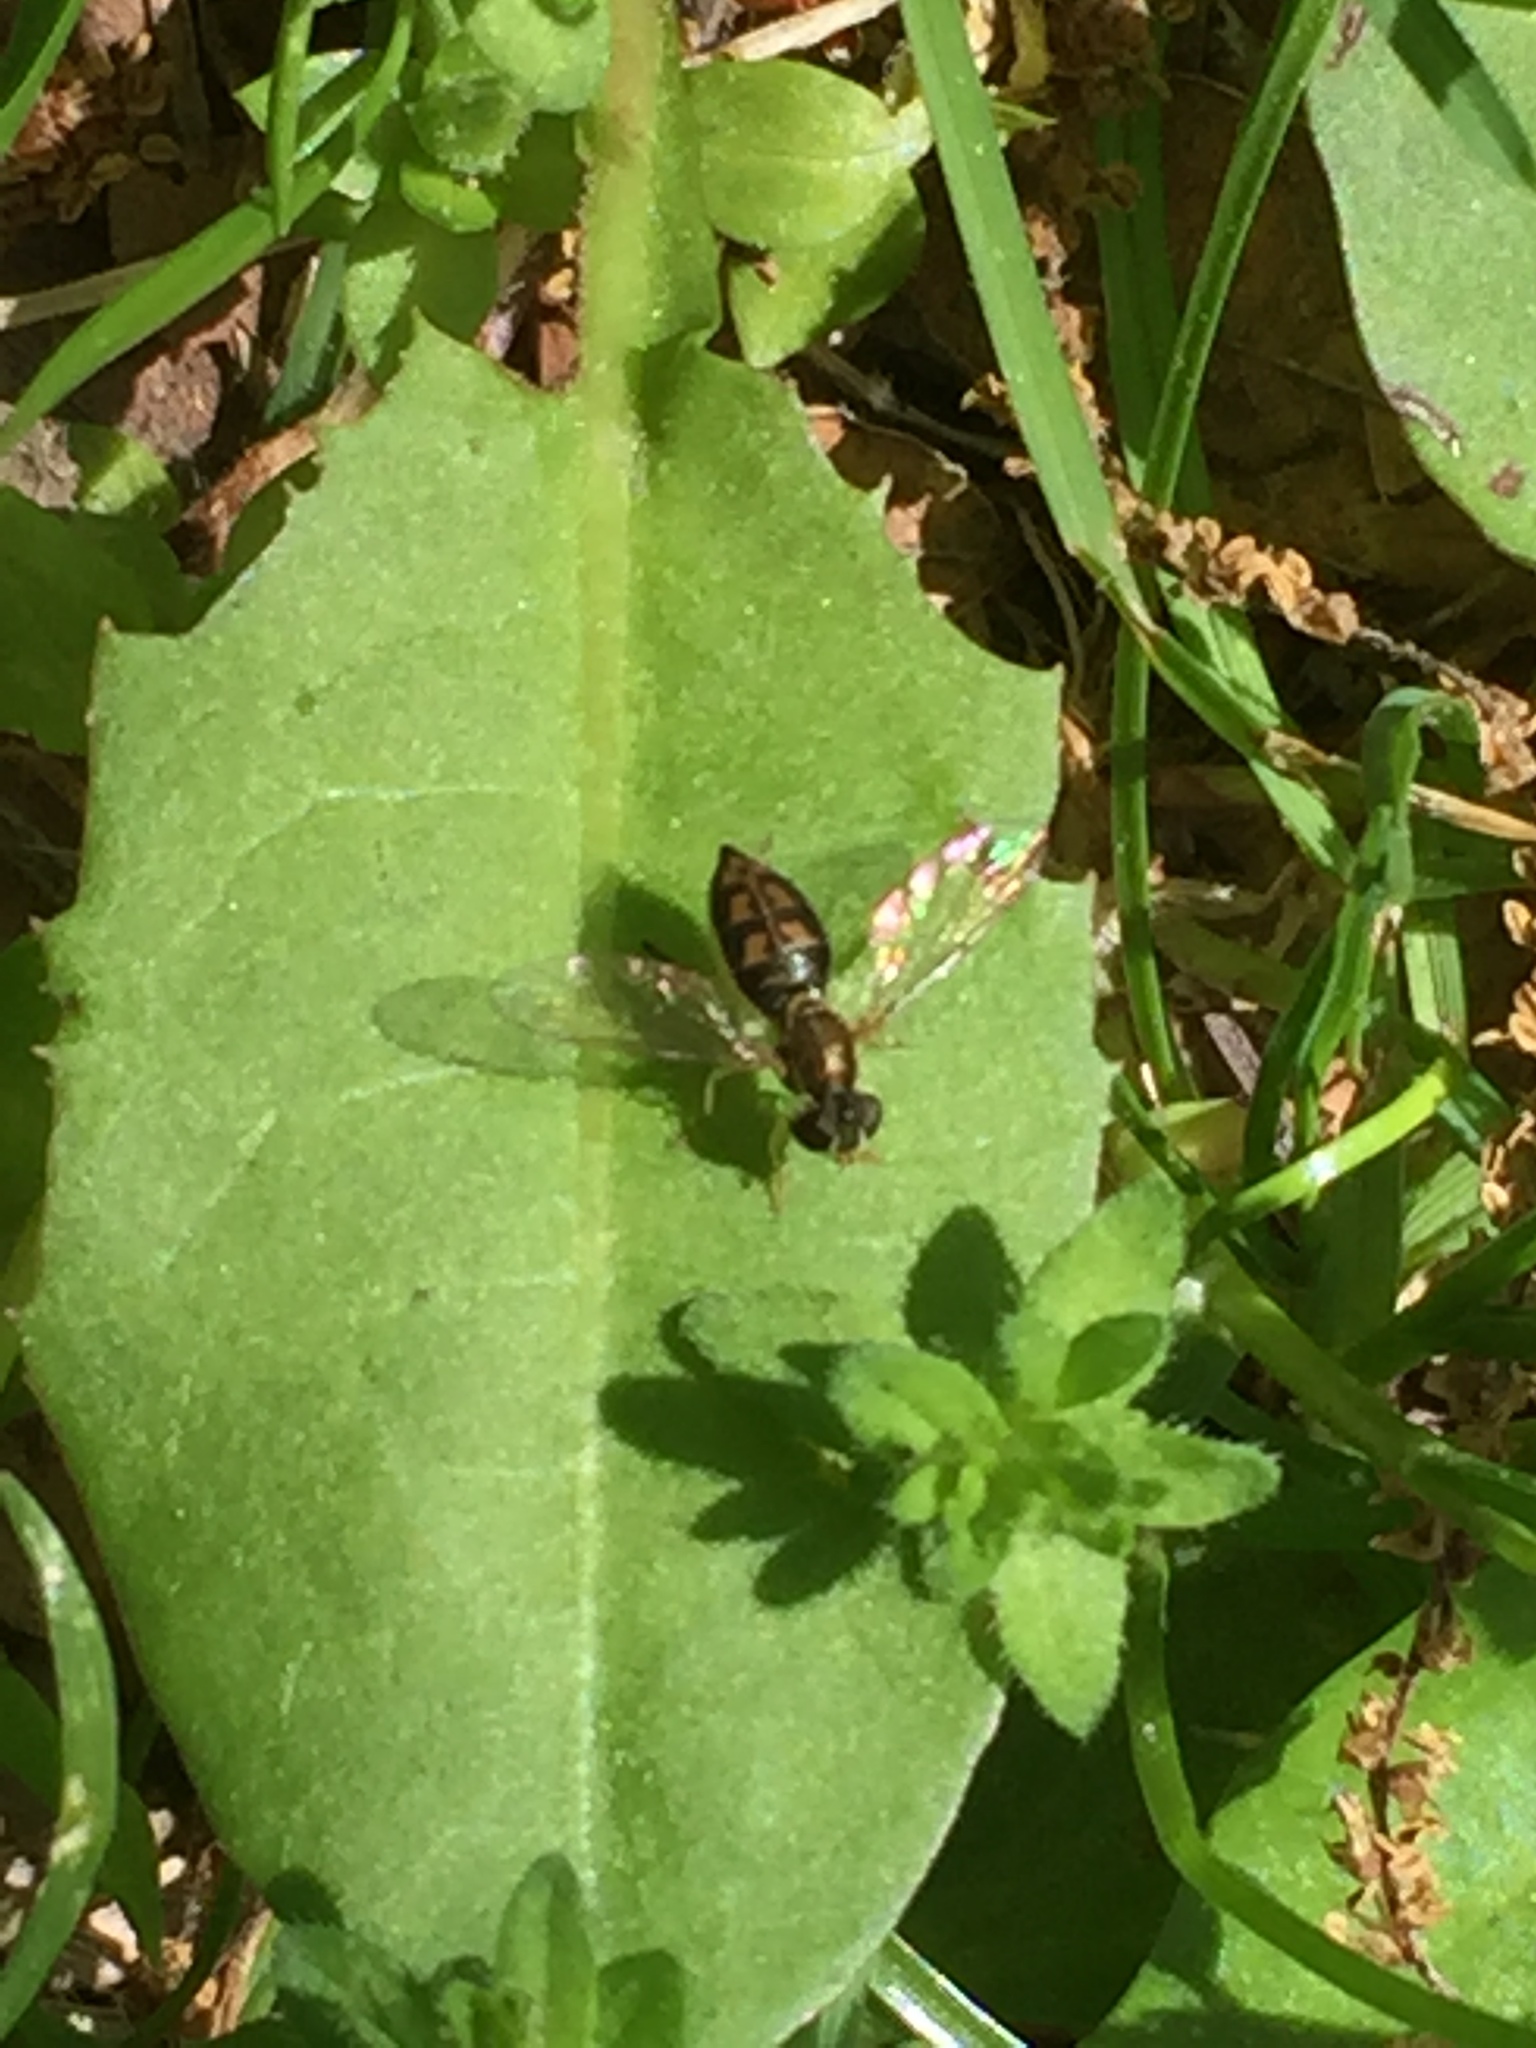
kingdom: Animalia
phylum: Arthropoda
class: Insecta
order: Diptera
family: Syrphidae
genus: Toxomerus
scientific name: Toxomerus marginatus
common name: Syrphid fly
